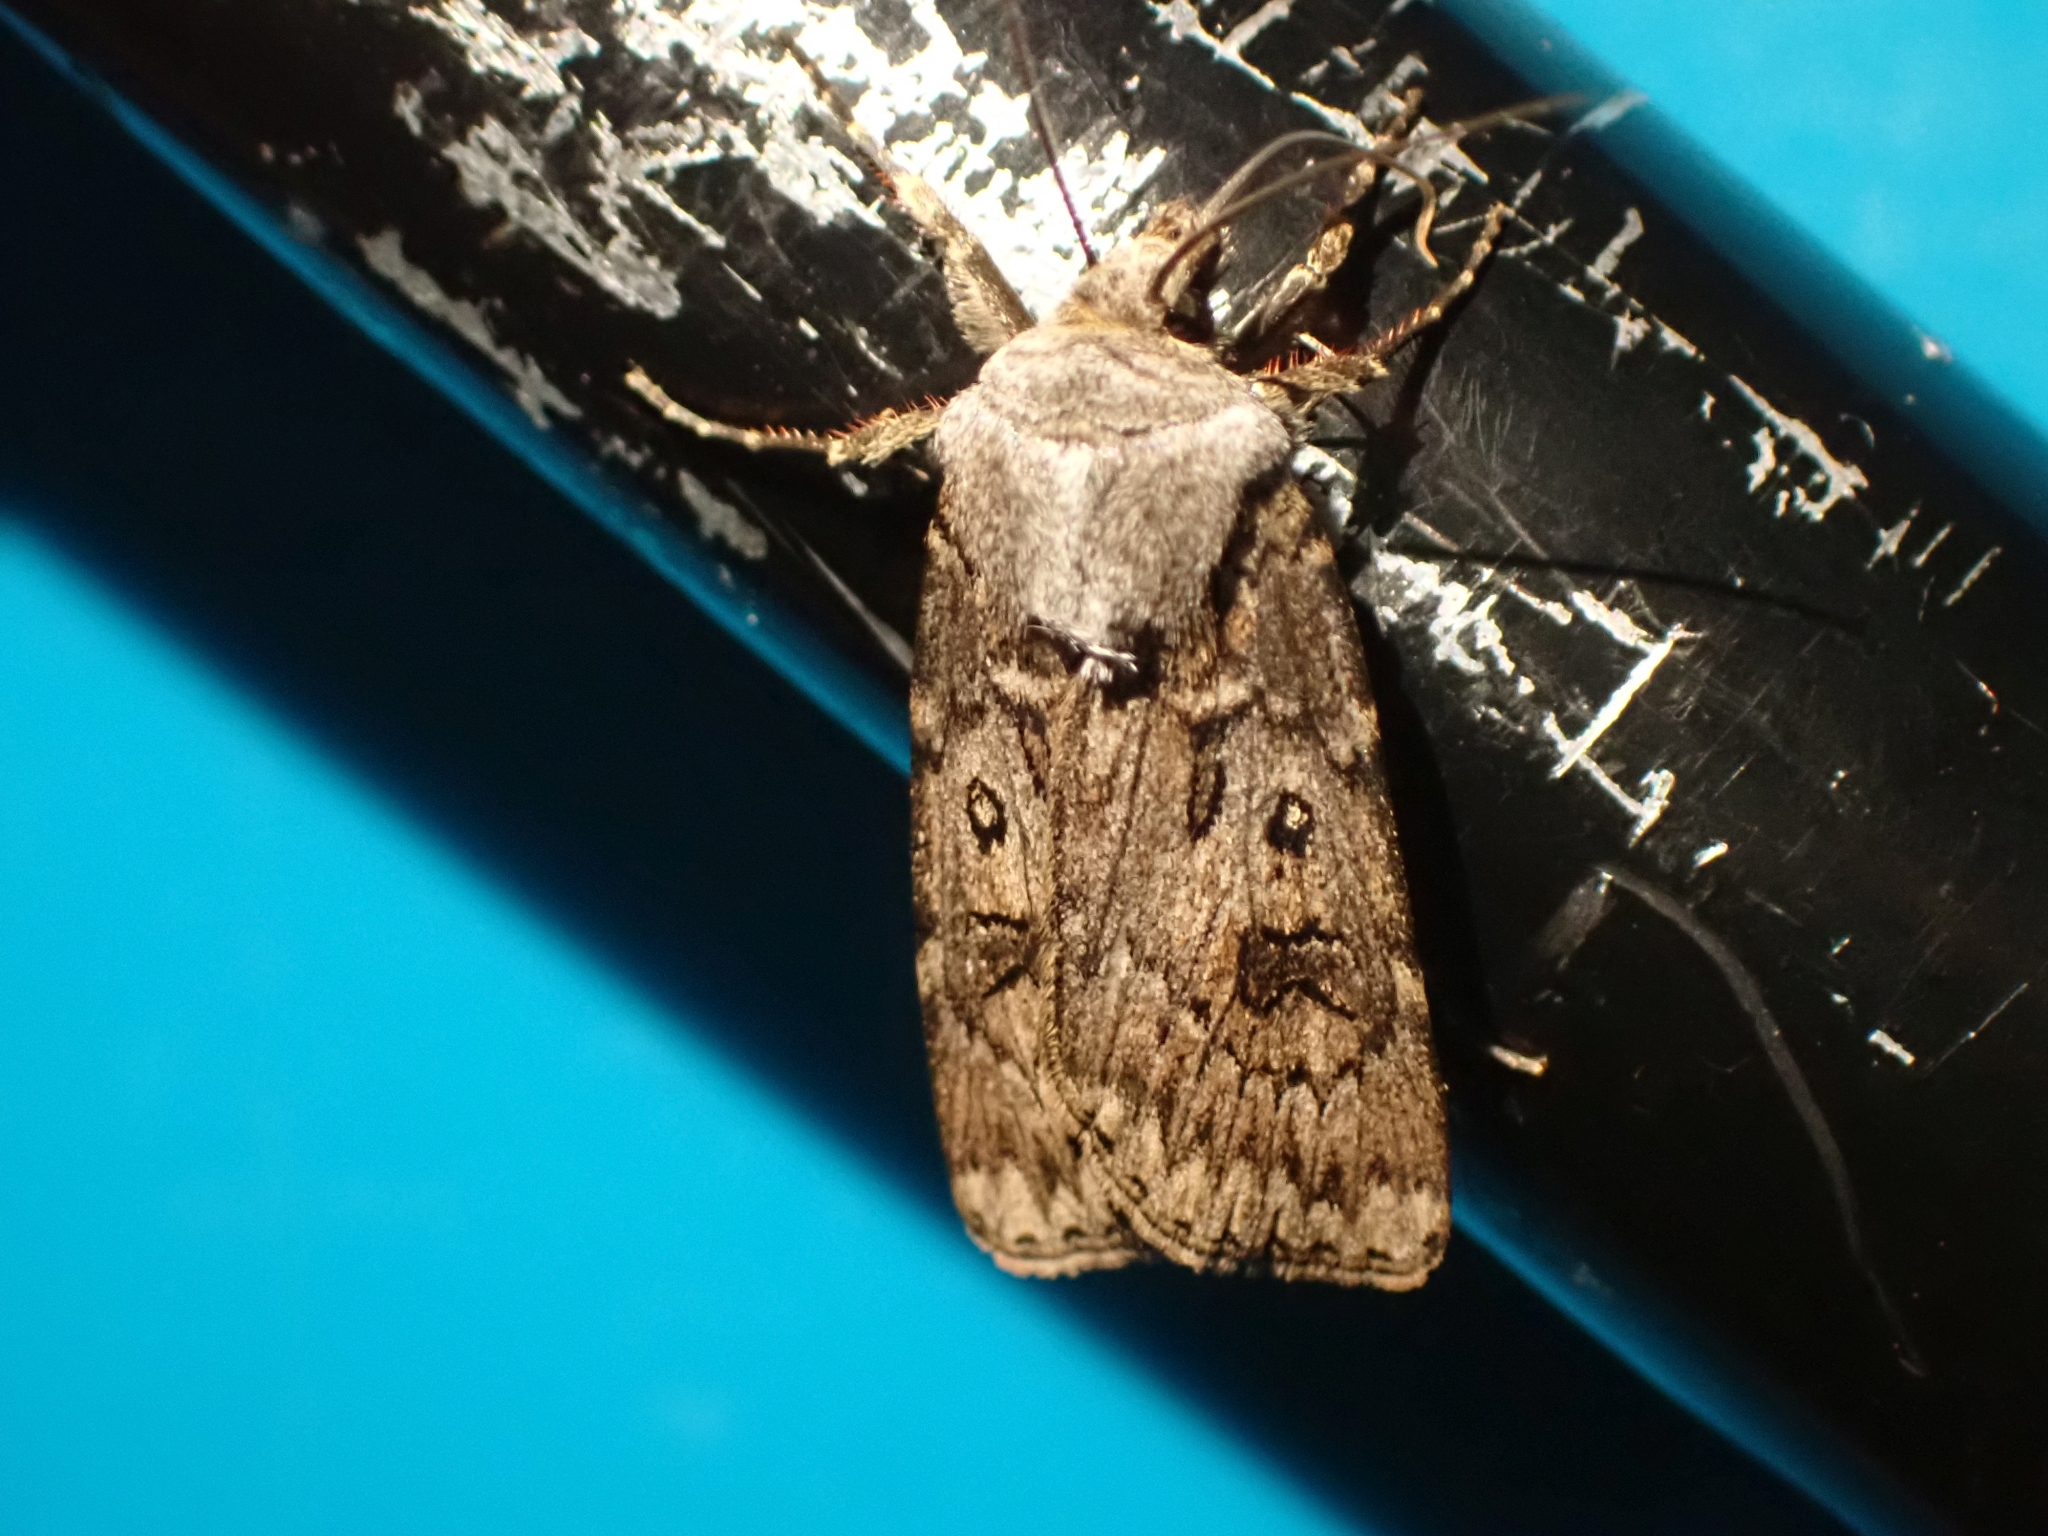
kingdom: Animalia
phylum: Arthropoda
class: Insecta
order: Lepidoptera
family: Noctuidae
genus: Agrotis
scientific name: Agrotis ruta
